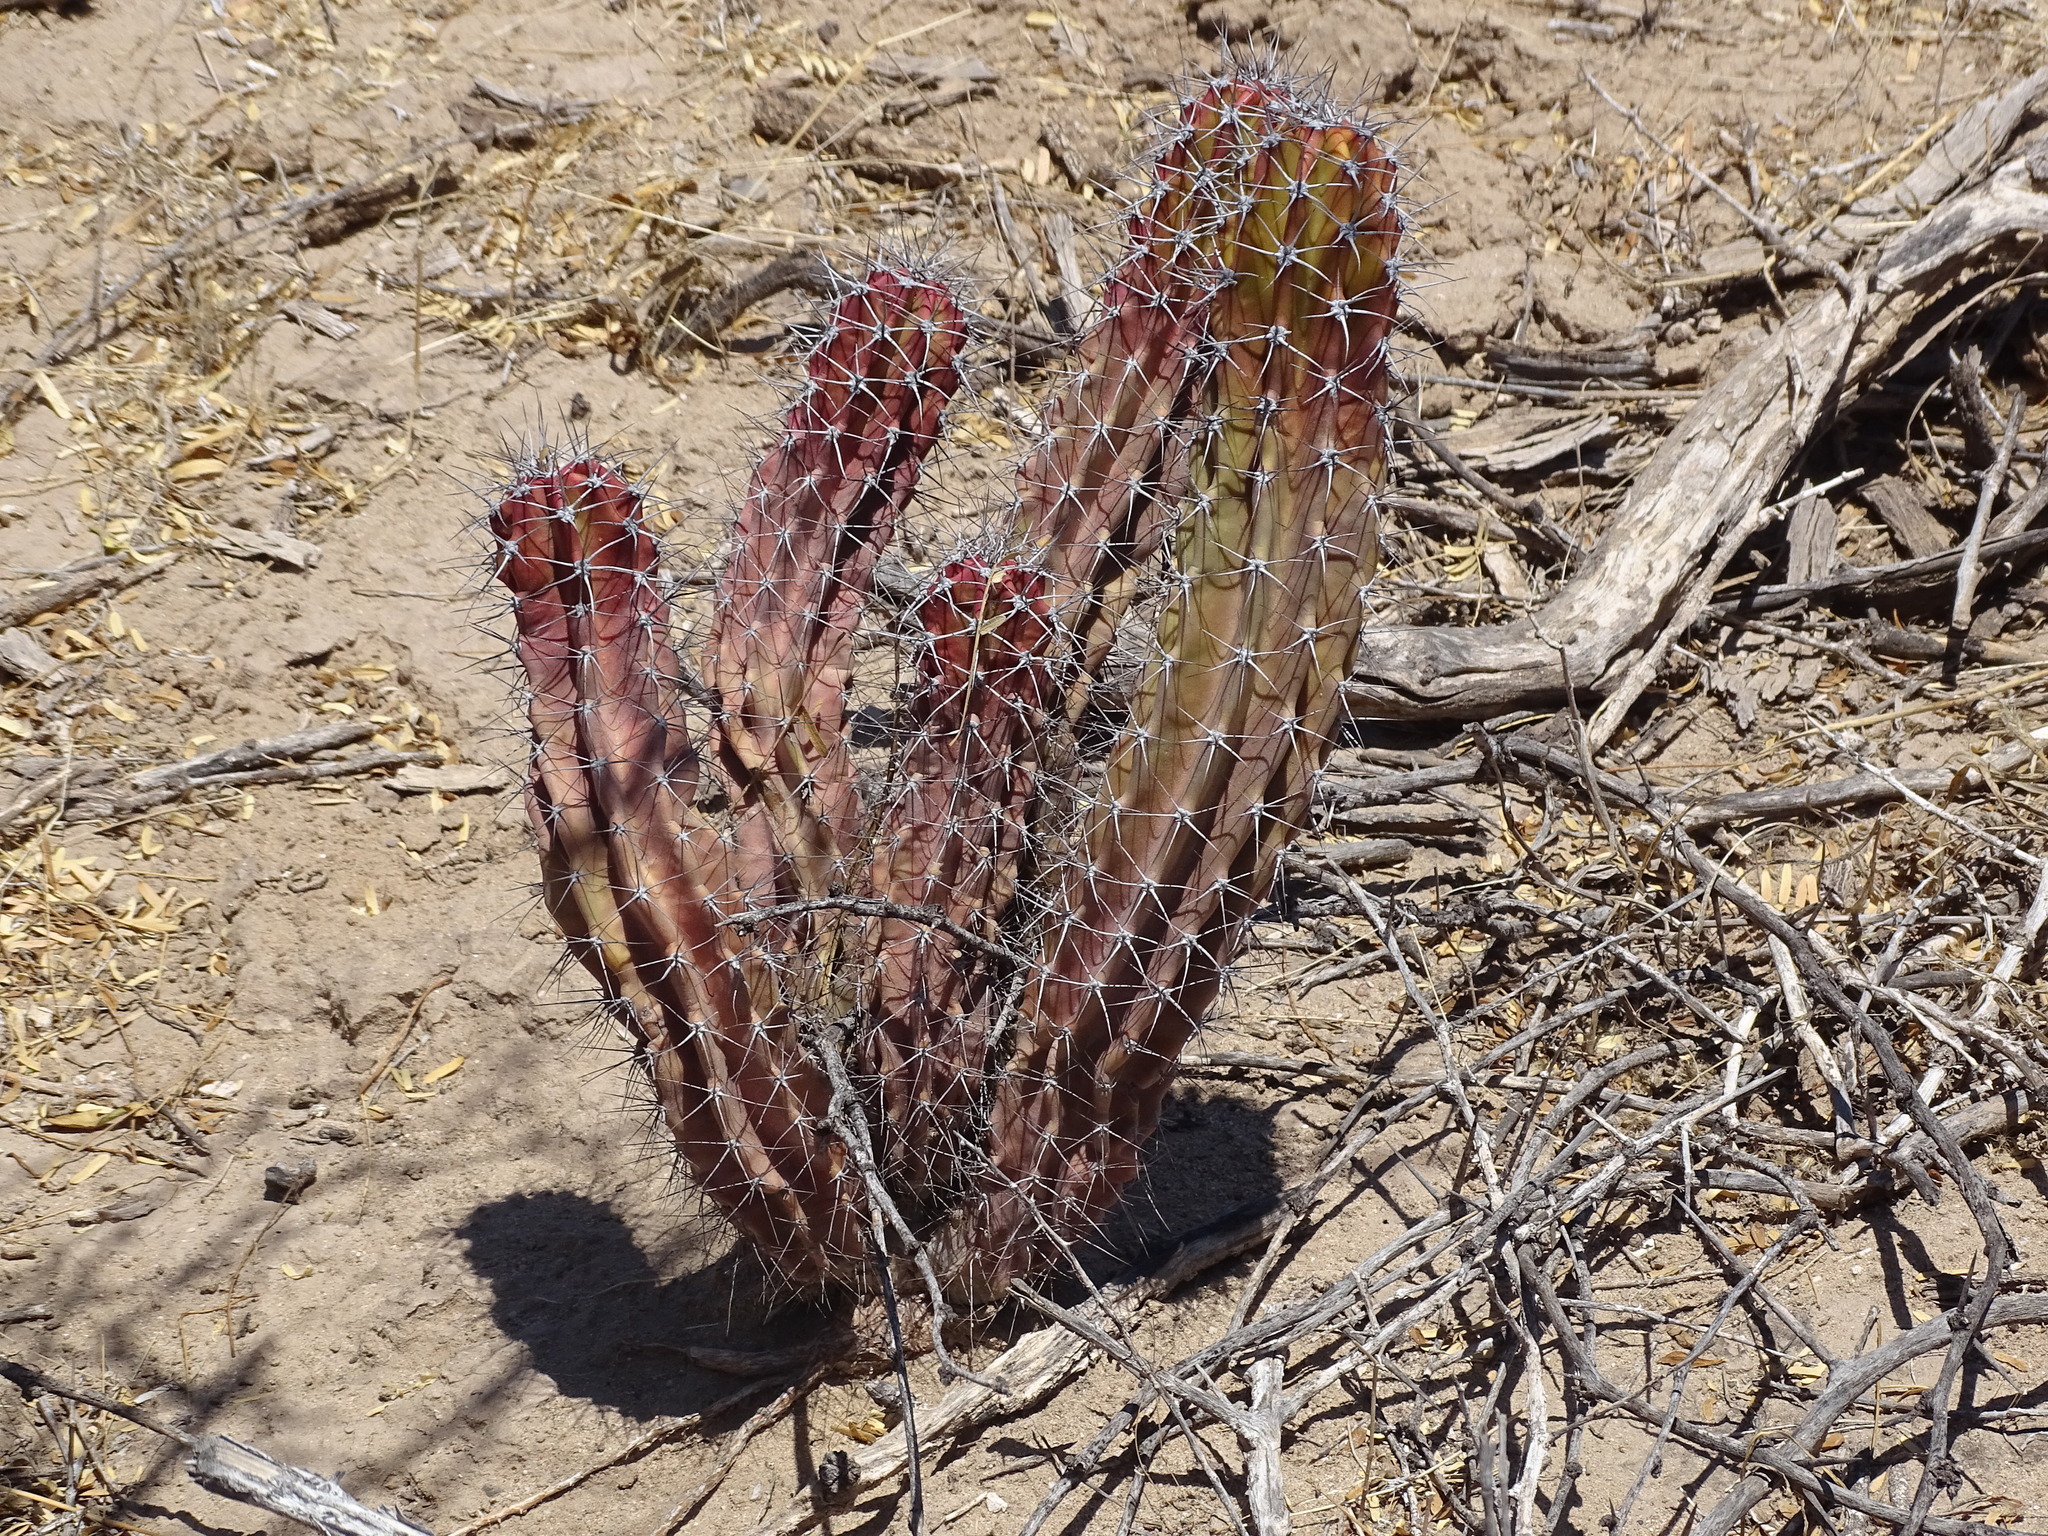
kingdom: Plantae
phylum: Tracheophyta
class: Magnoliopsida
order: Caryophyllales
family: Cactaceae
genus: Pachycereus
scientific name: Pachycereus schottii
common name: Senita cactus
